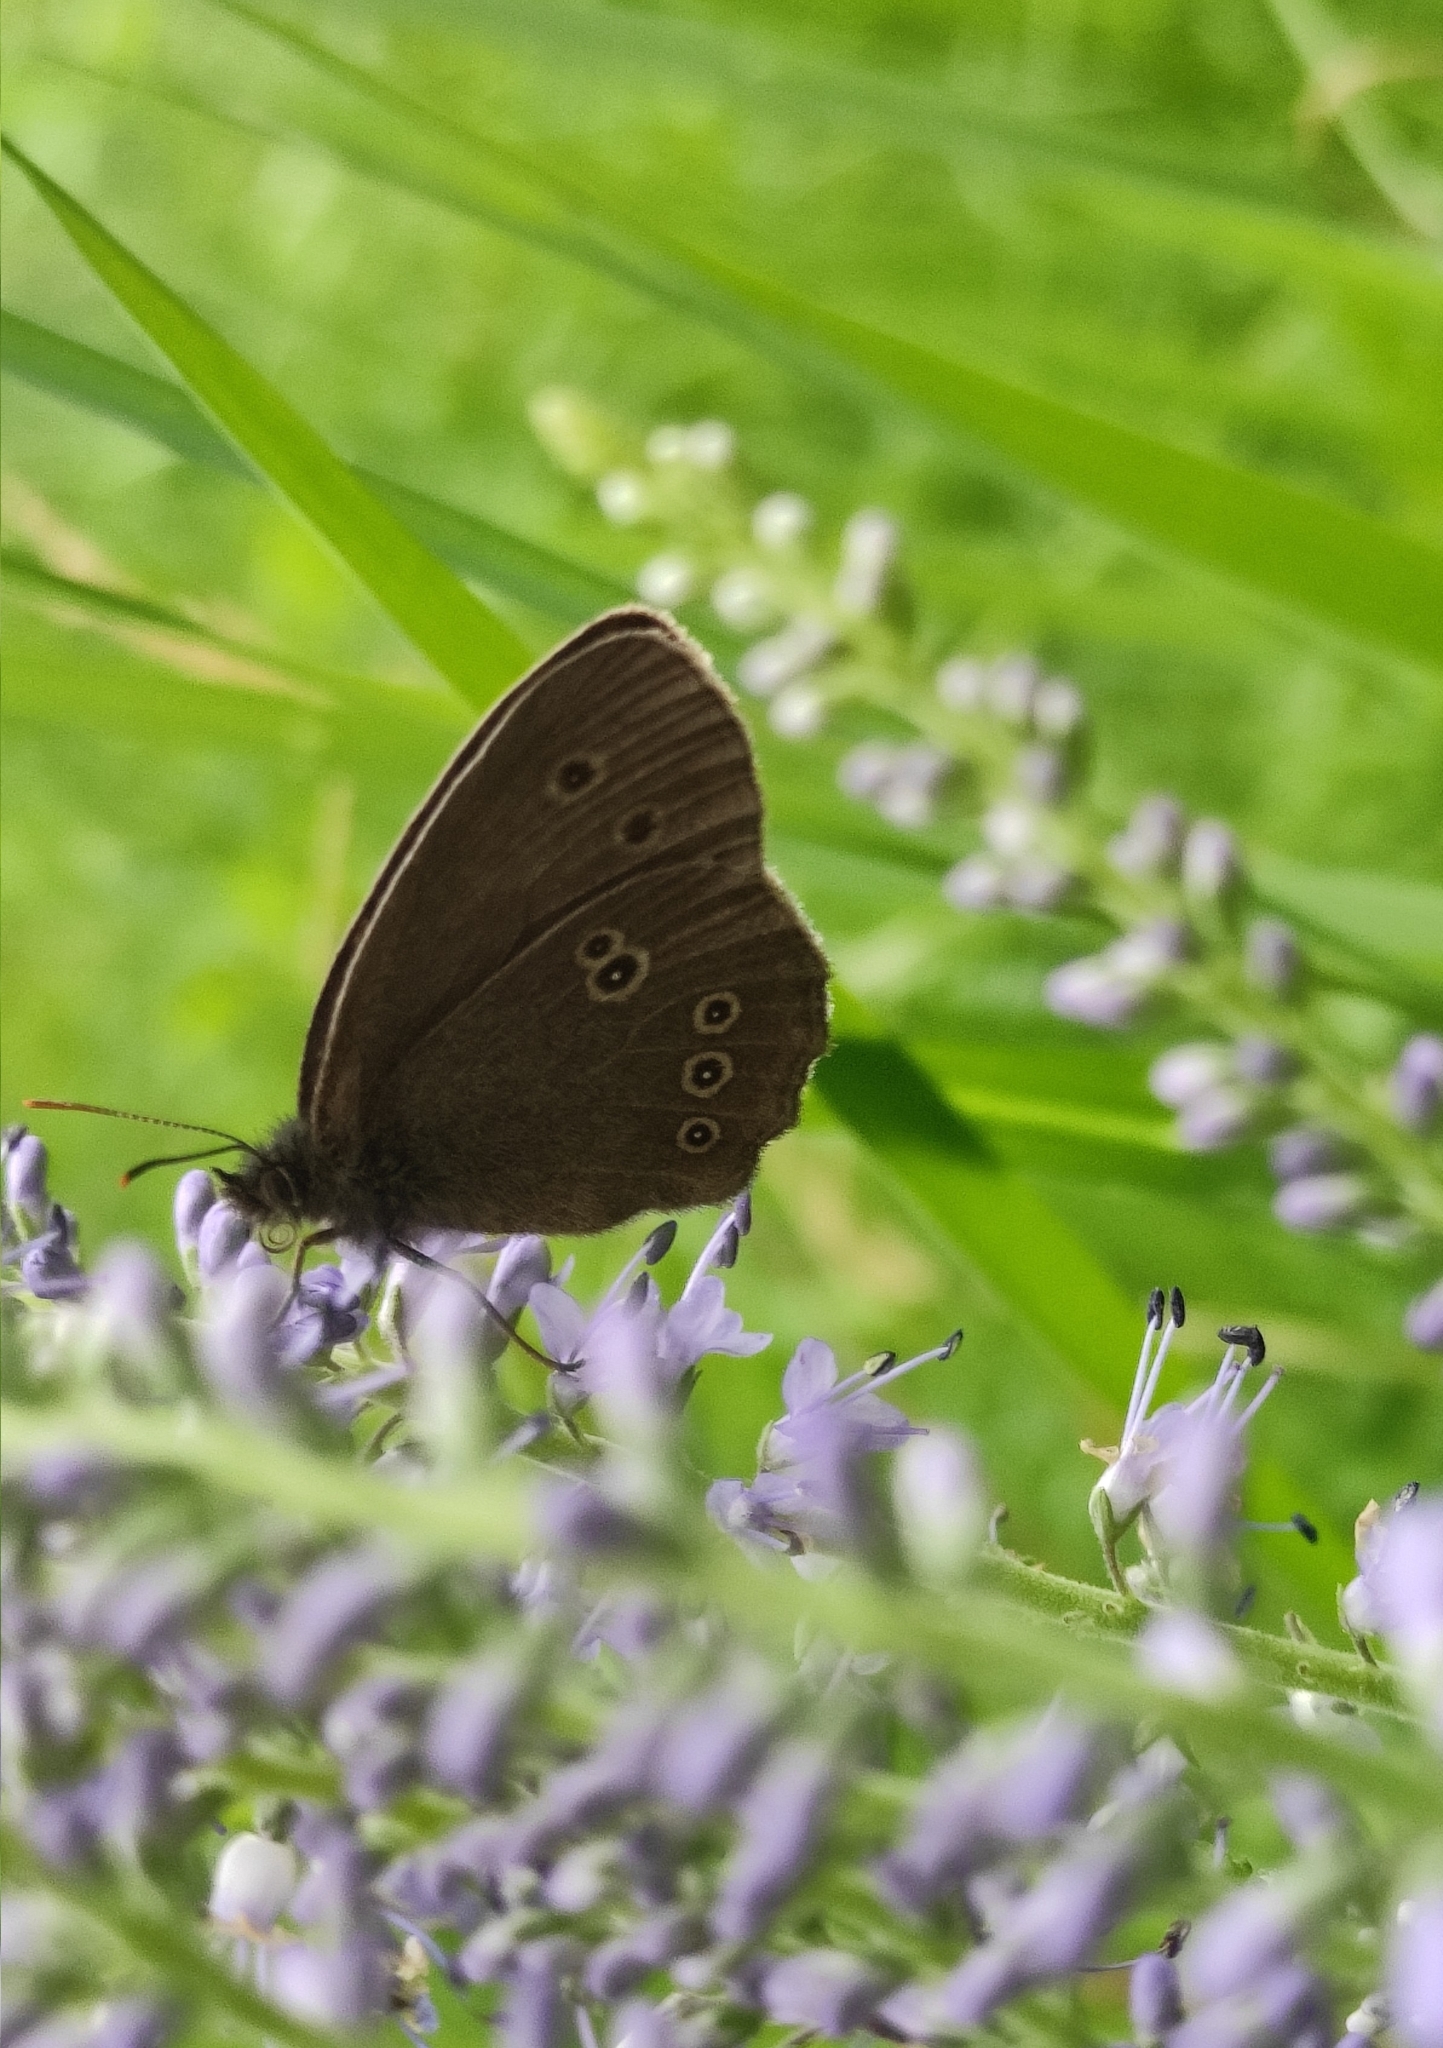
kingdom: Animalia
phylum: Arthropoda
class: Insecta
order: Lepidoptera
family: Nymphalidae
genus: Aphantopus
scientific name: Aphantopus hyperantus
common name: Ringlet
